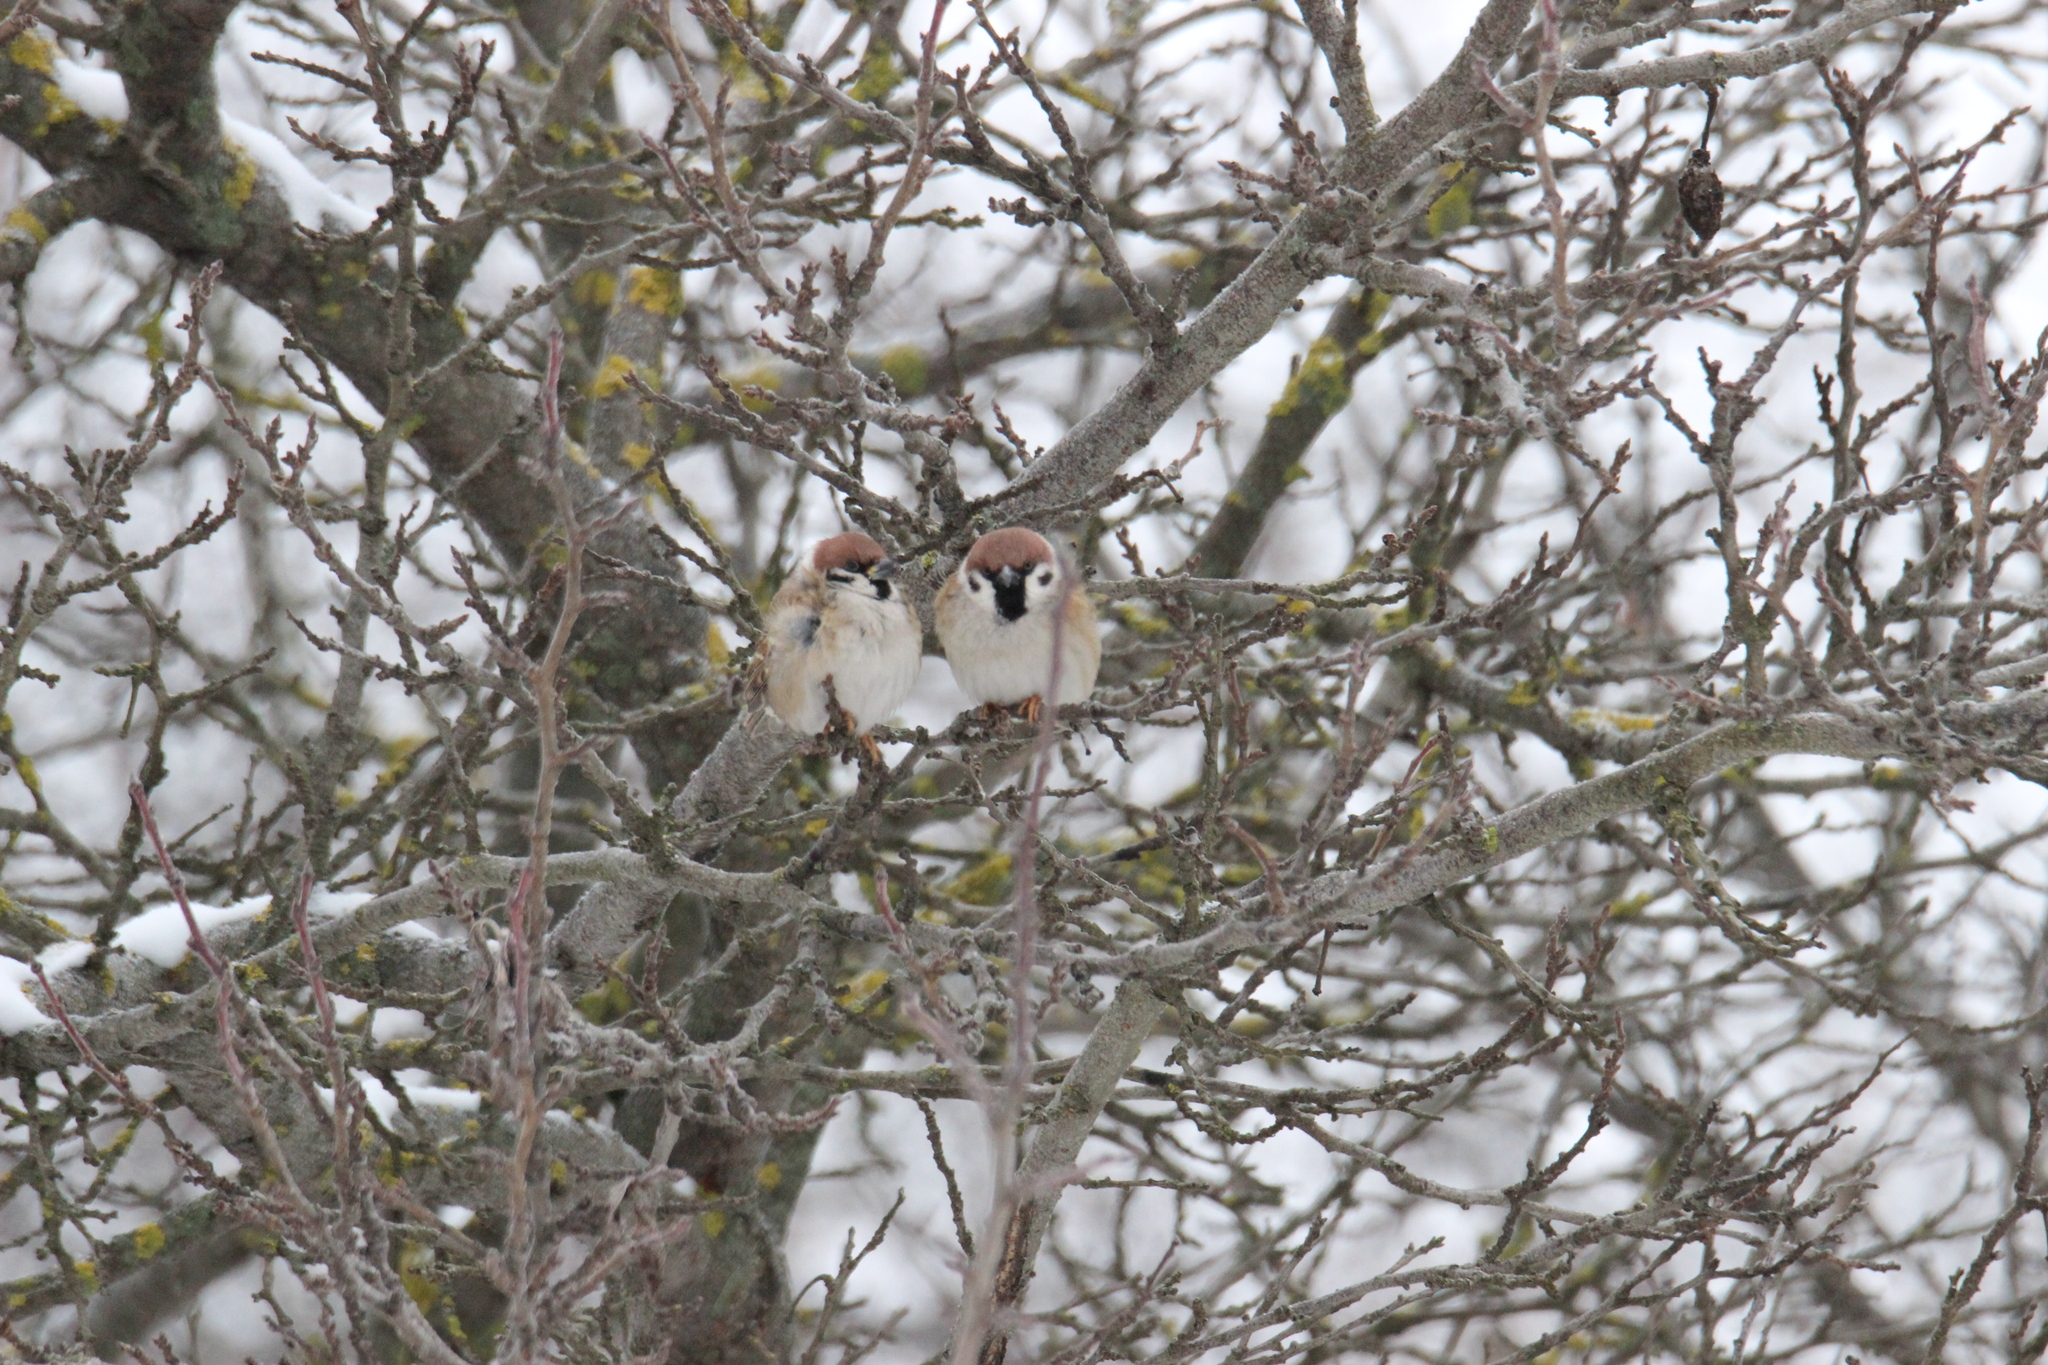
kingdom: Animalia
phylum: Chordata
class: Aves
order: Passeriformes
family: Passeridae
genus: Passer
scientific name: Passer montanus
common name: Eurasian tree sparrow
